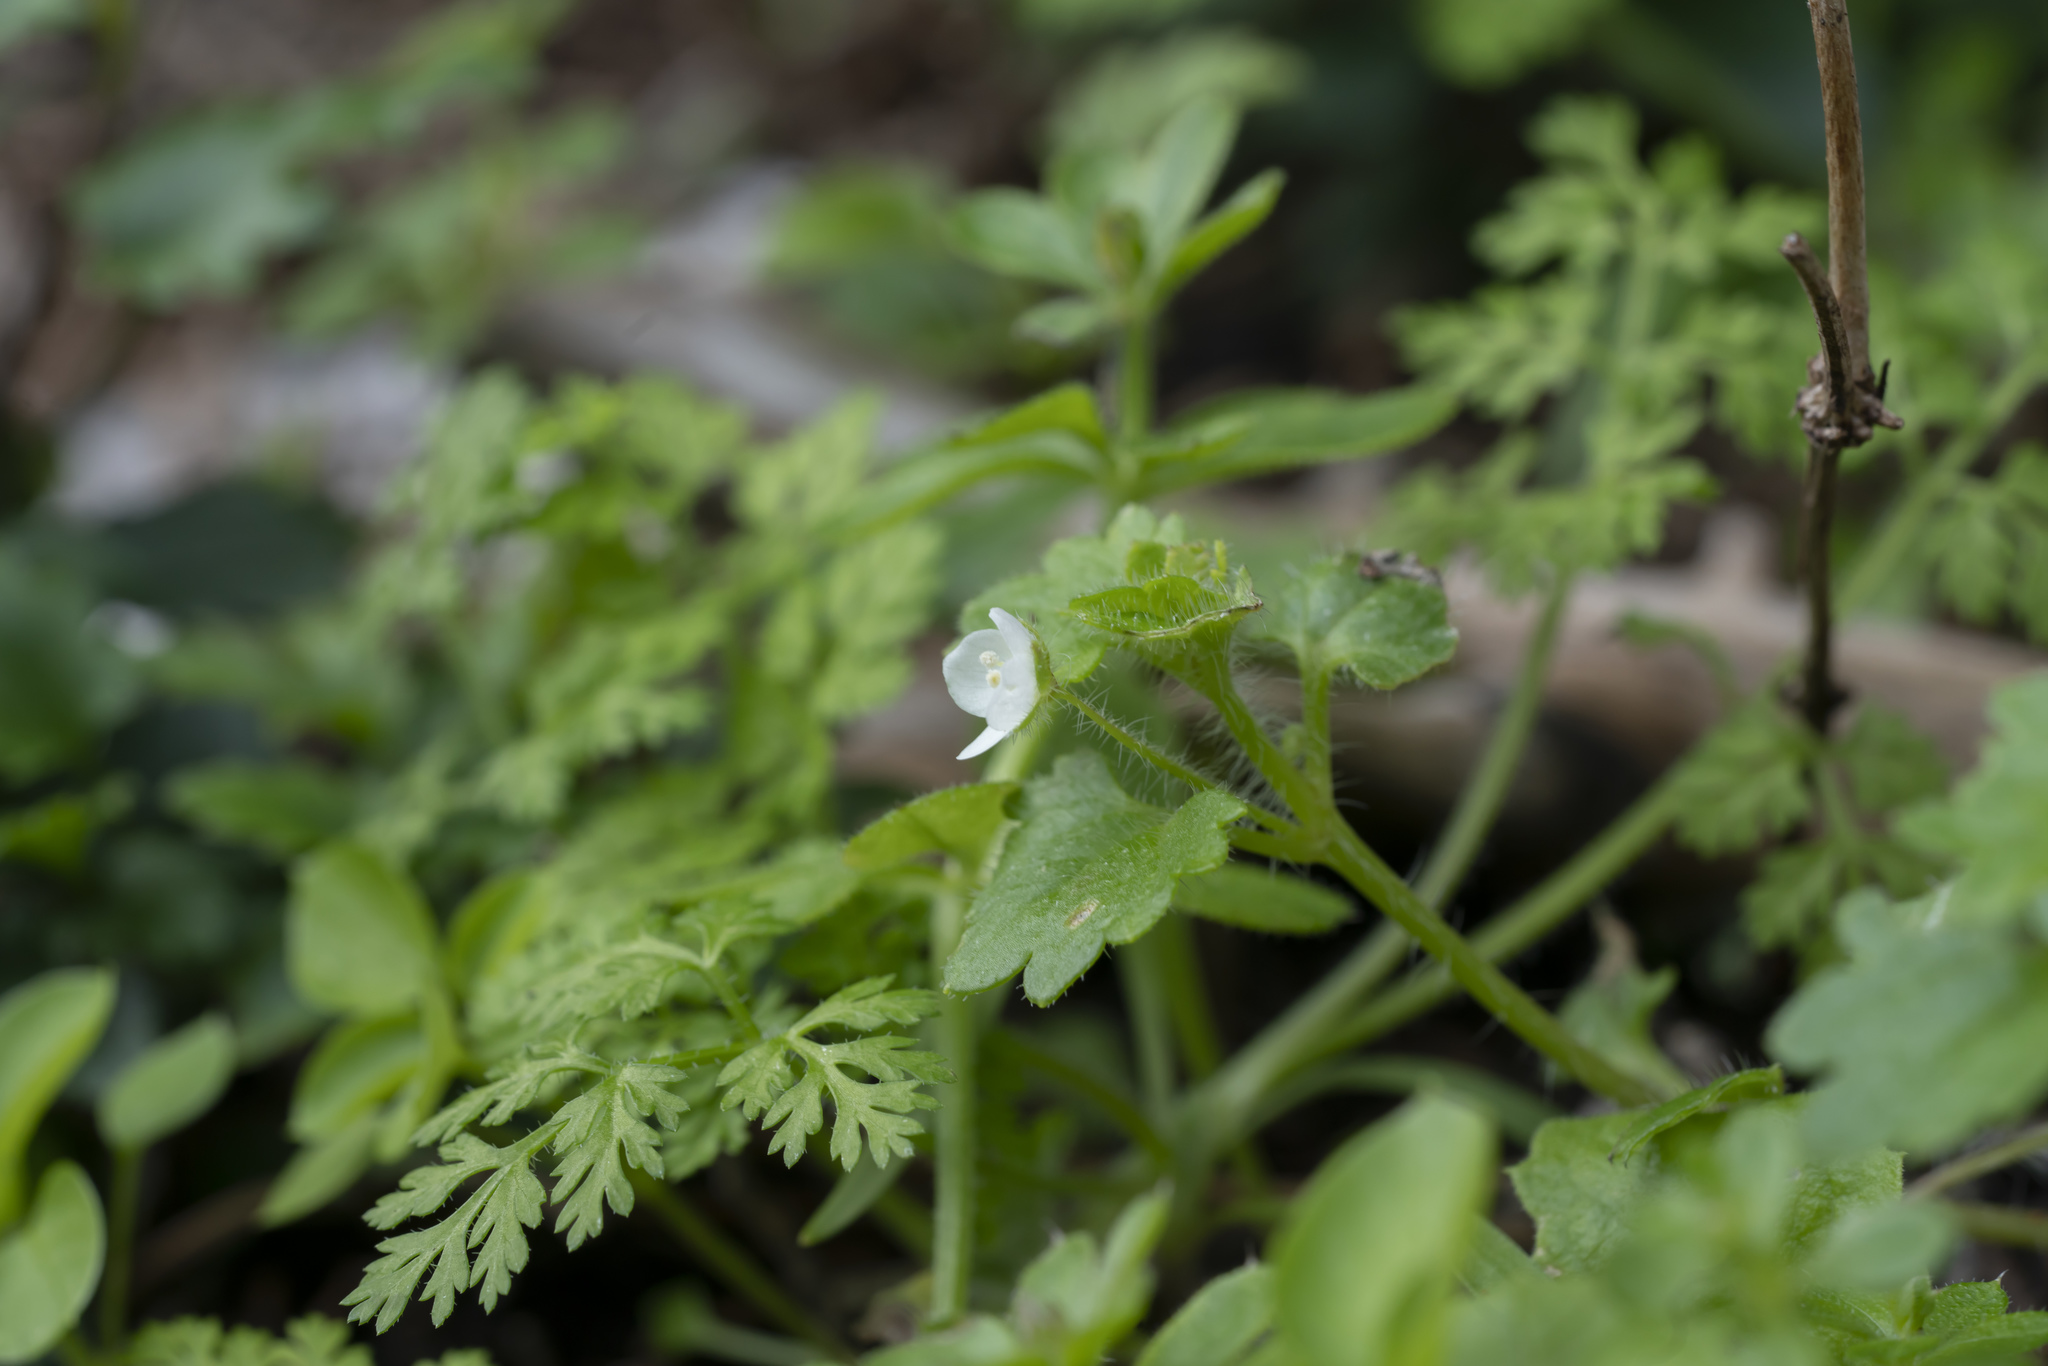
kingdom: Plantae
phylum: Tracheophyta
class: Magnoliopsida
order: Lamiales
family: Plantaginaceae
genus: Veronica
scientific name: Veronica cymbalaria
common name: Pale speedwell
